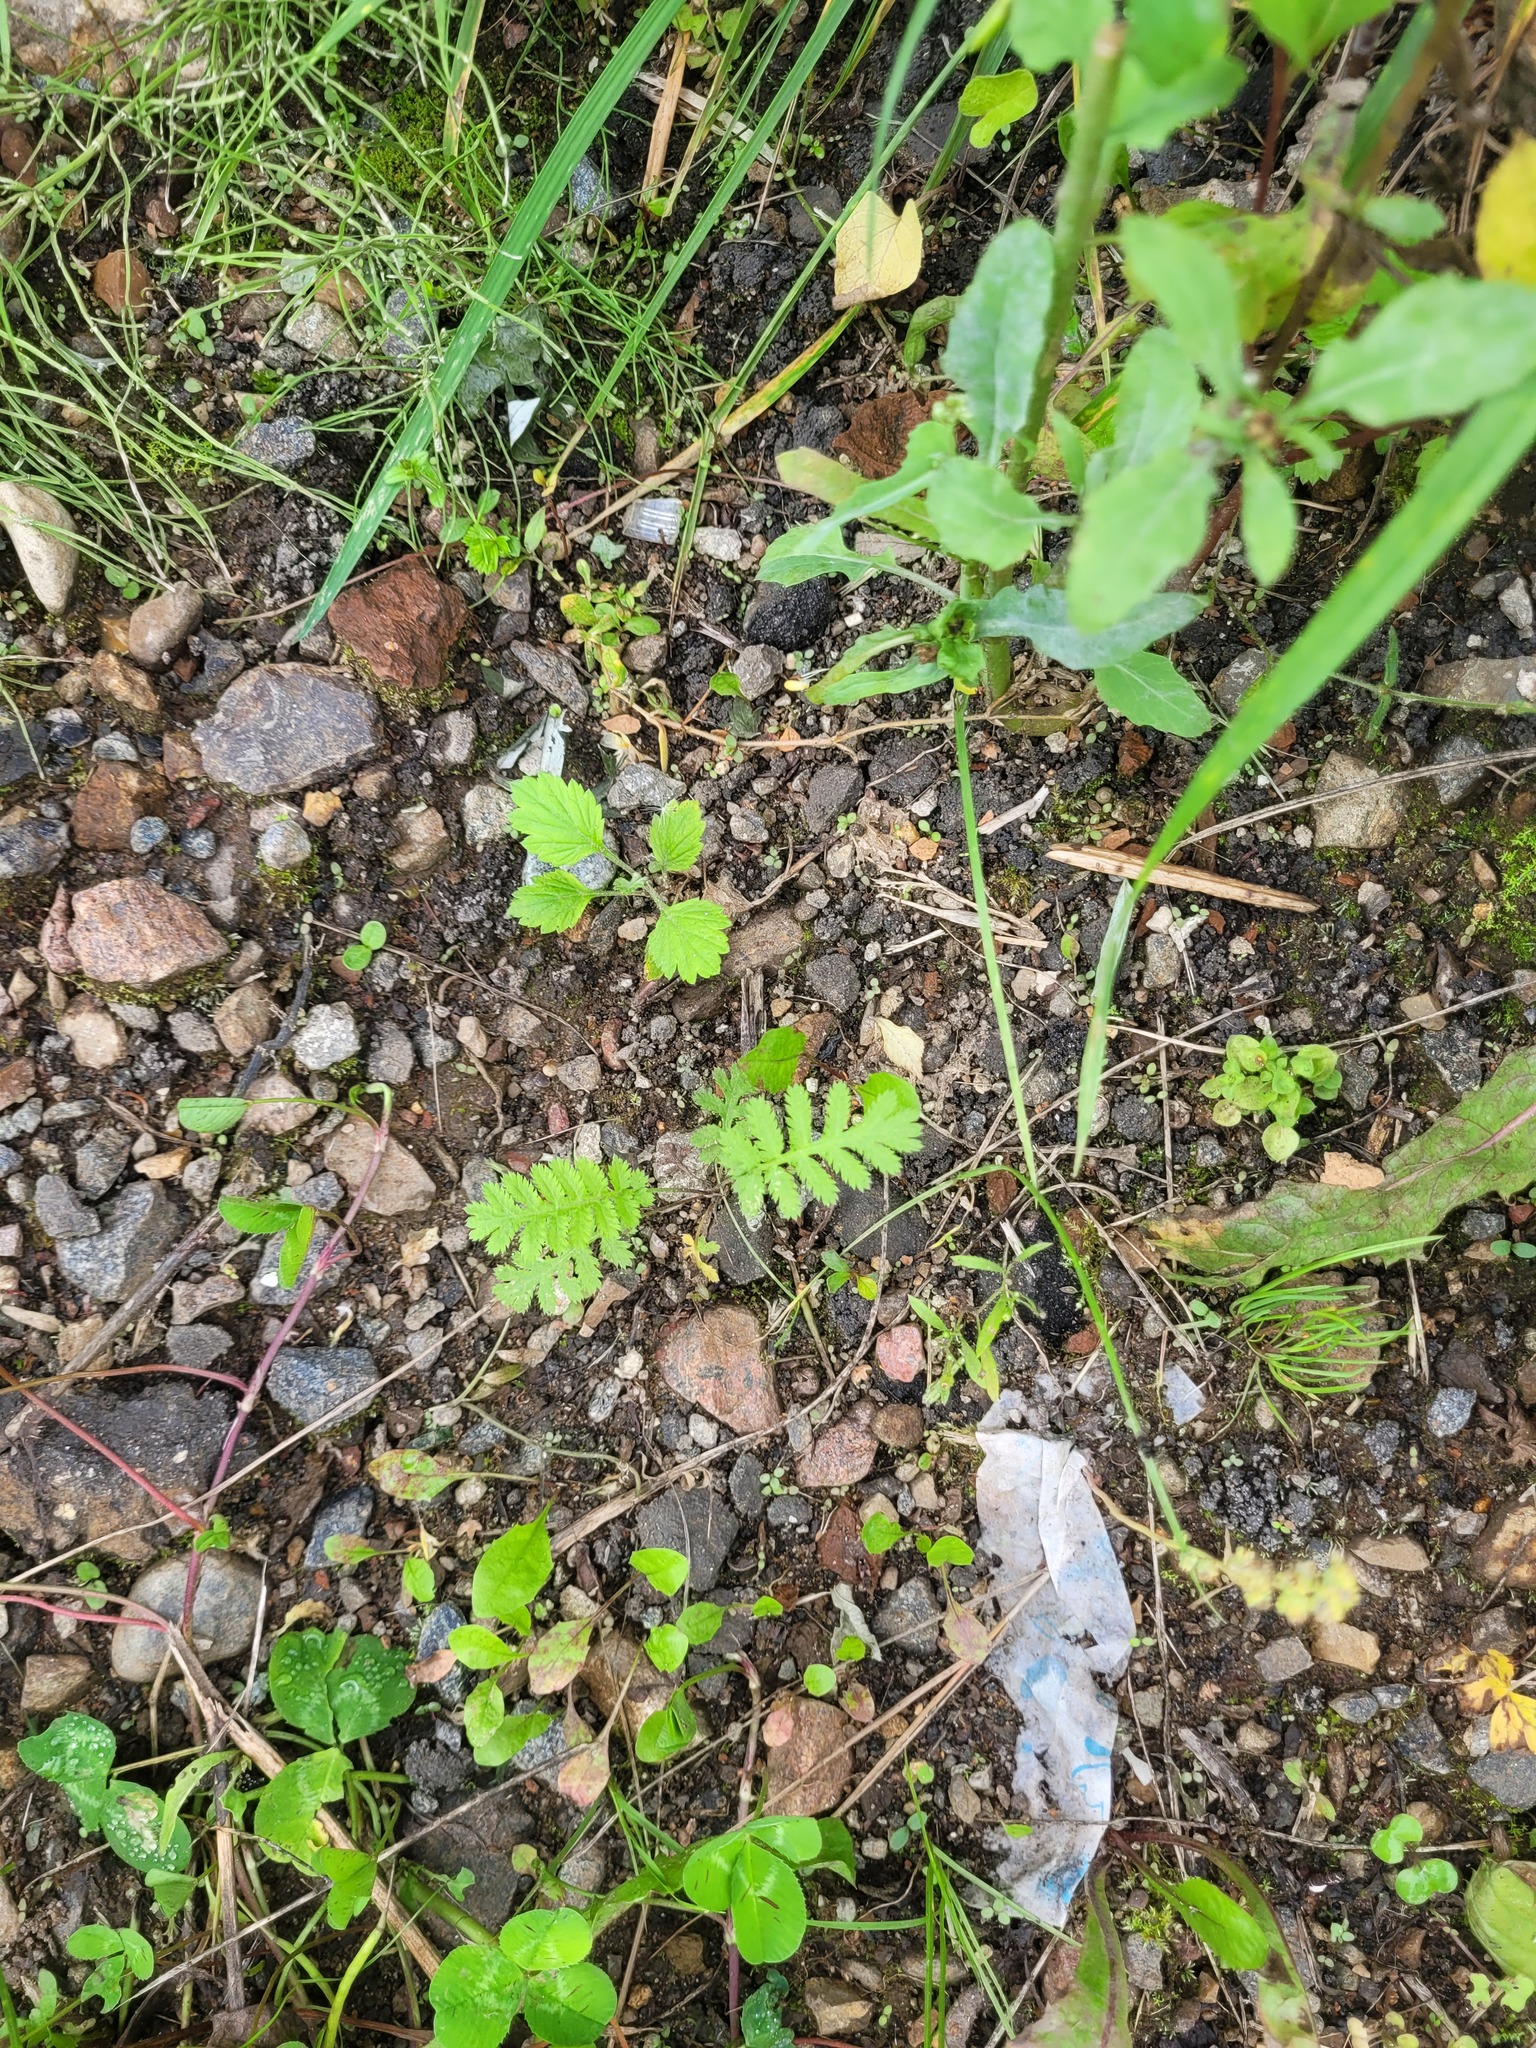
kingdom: Plantae
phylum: Tracheophyta
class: Magnoliopsida
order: Asterales
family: Asteraceae
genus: Tanacetum
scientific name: Tanacetum vulgare
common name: Common tansy
